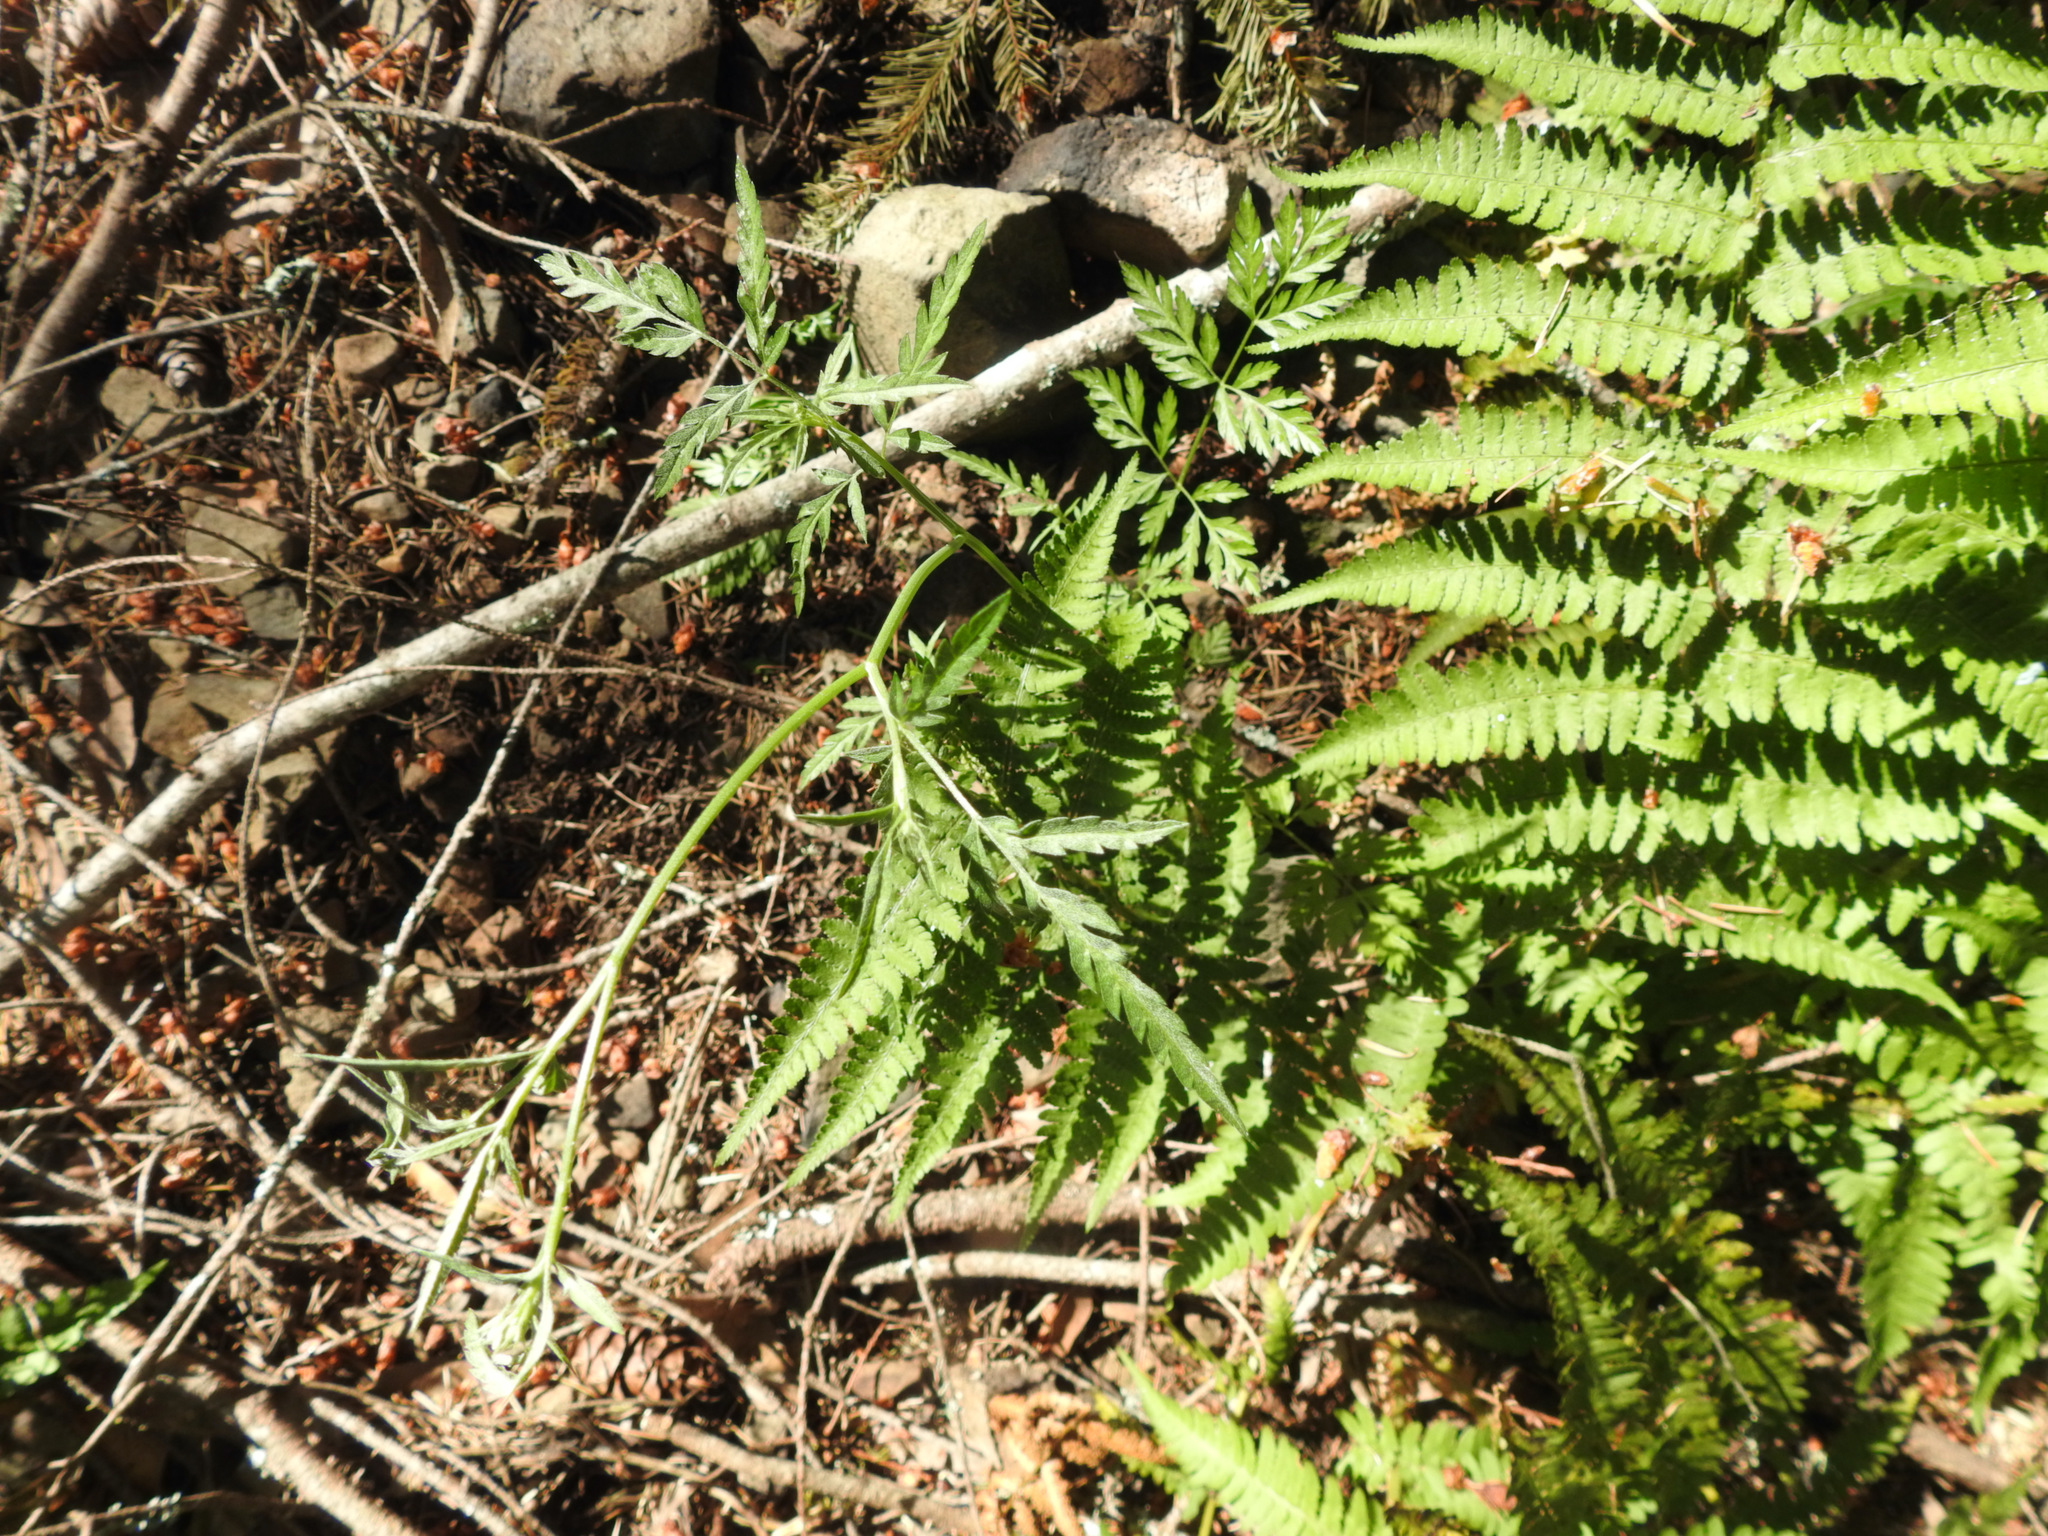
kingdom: Plantae
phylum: Tracheophyta
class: Polypodiopsida
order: Polypodiales
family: Dryopteridaceae
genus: Dryopteris
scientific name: Dryopteris arguta
